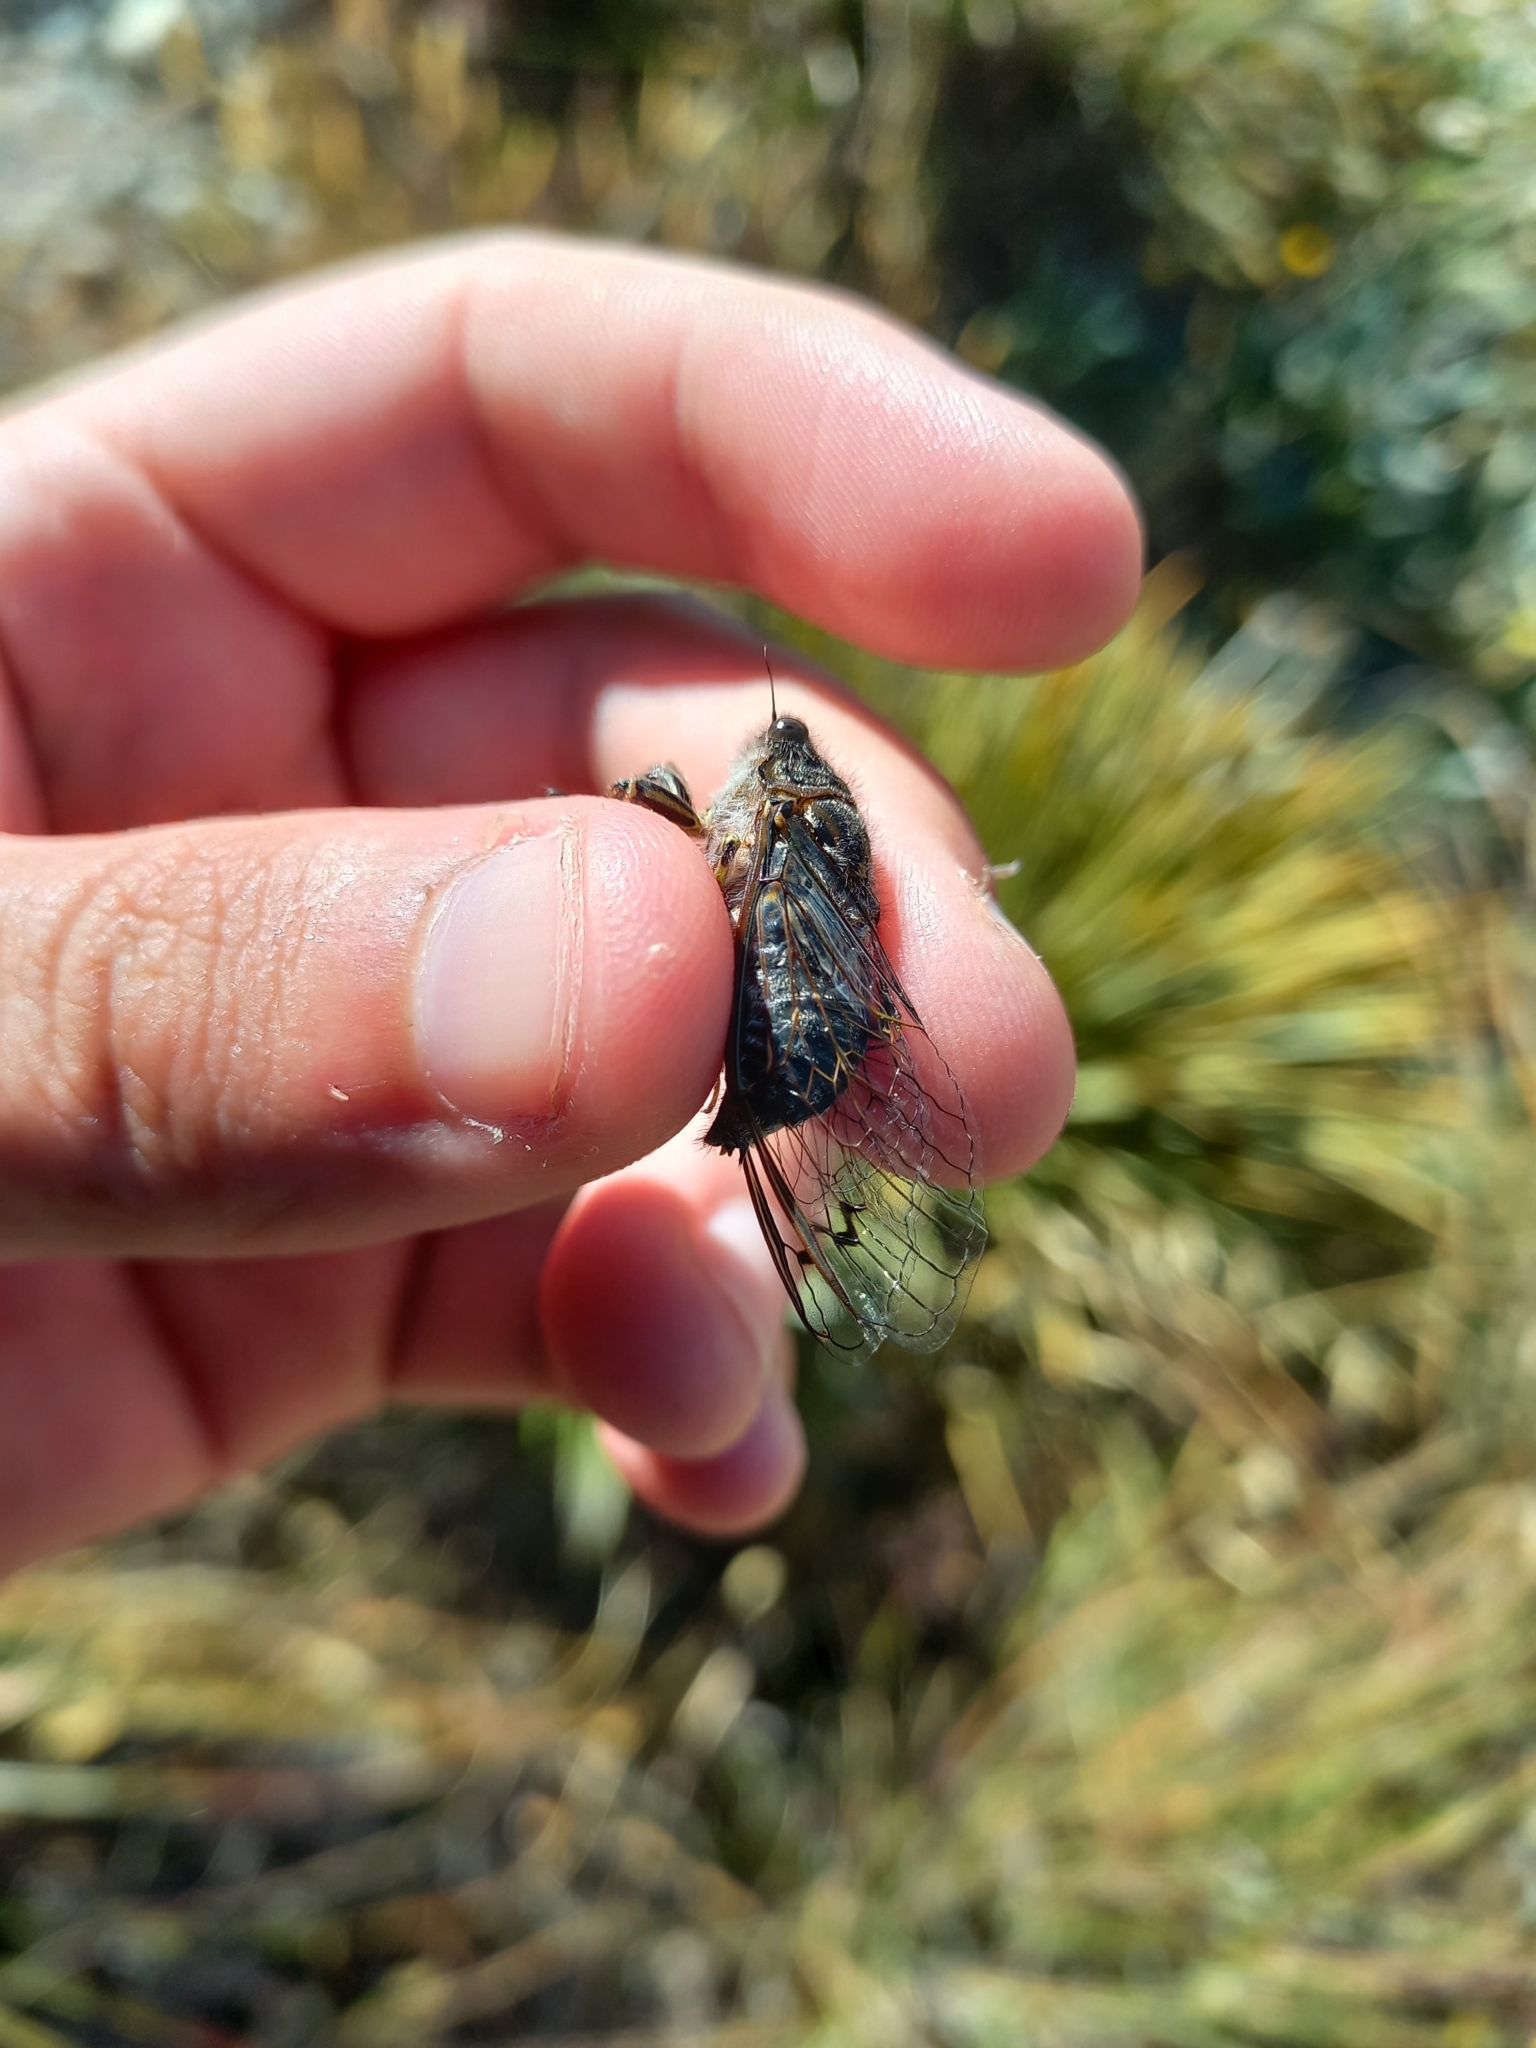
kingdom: Animalia
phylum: Arthropoda
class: Insecta
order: Hemiptera
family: Cicadidae
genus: Amphipsalta
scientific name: Amphipsalta strepitans
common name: Chirping cicada
